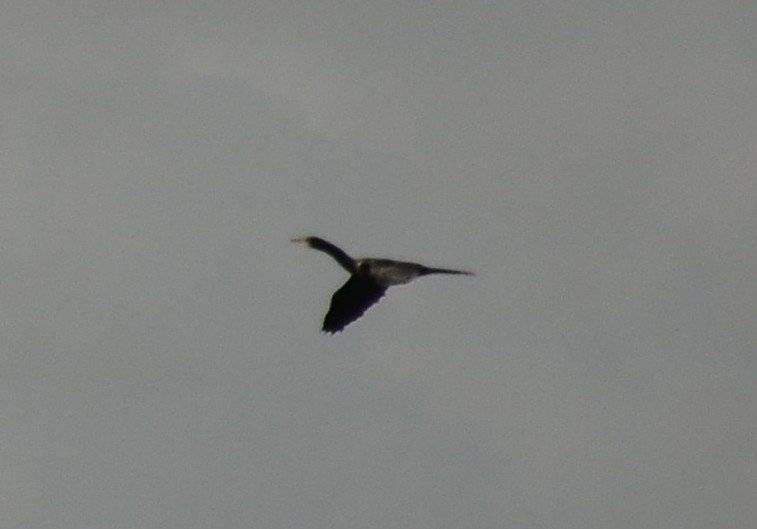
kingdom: Animalia
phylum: Chordata
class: Aves
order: Suliformes
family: Phalacrocoracidae
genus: Microcarbo
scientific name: Microcarbo niger
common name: Little cormorant
